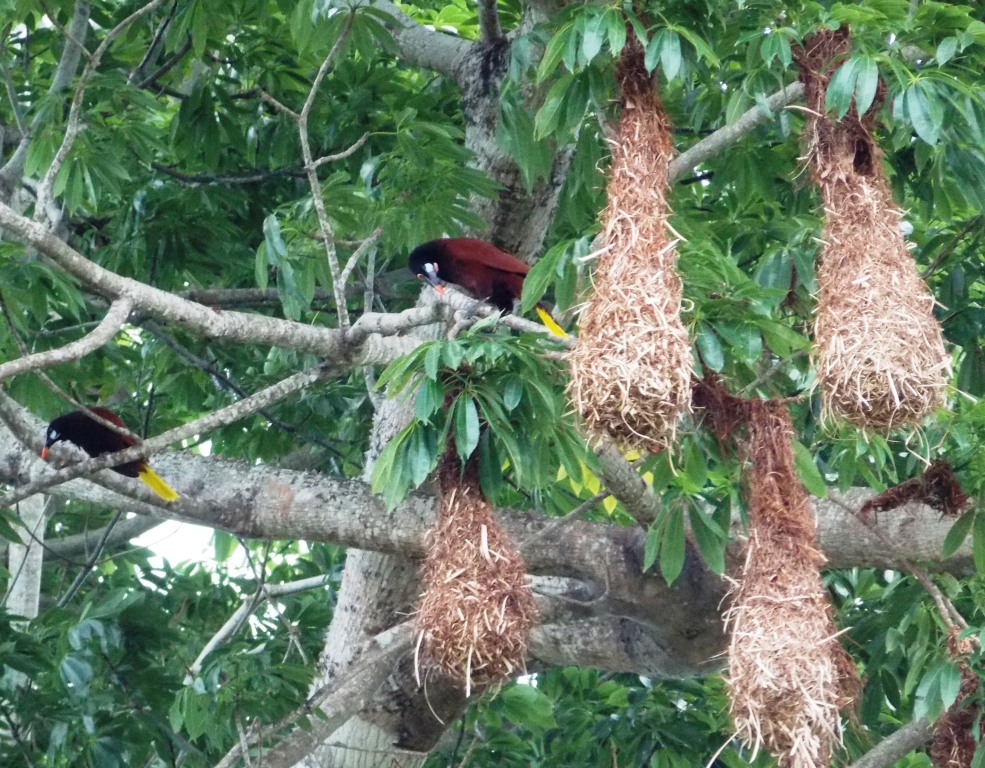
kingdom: Animalia
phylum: Chordata
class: Aves
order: Passeriformes
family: Icteridae
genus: Psarocolius
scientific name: Psarocolius montezuma
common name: Montezuma oropendola
